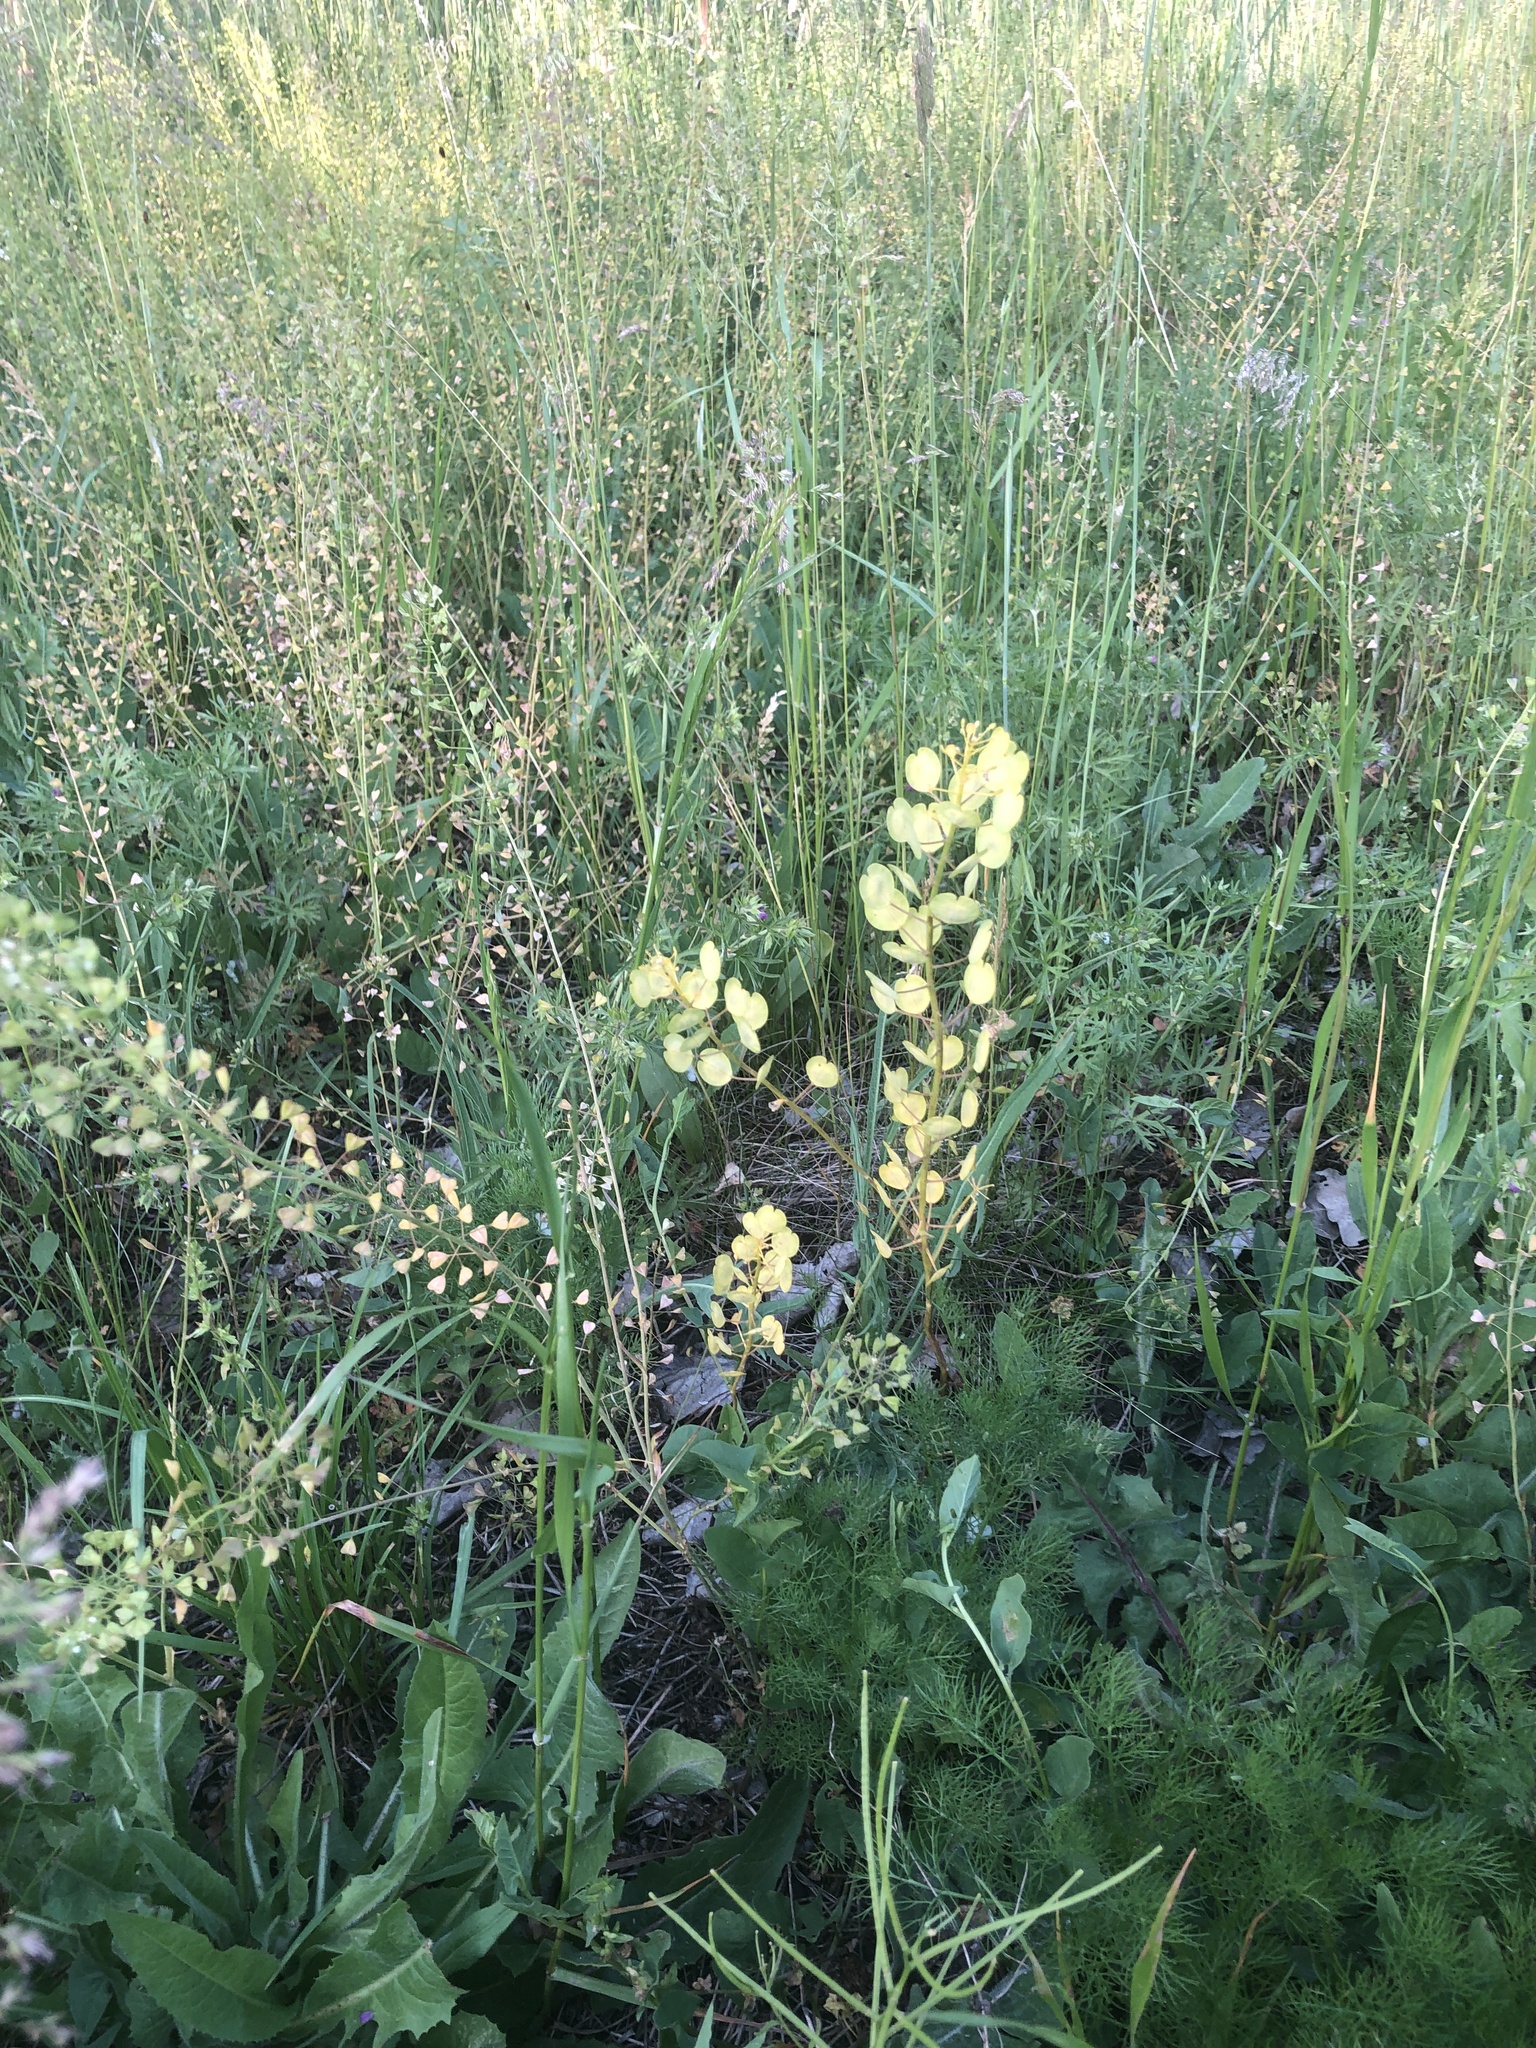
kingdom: Plantae
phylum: Tracheophyta
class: Magnoliopsida
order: Brassicales
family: Brassicaceae
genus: Thlaspi
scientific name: Thlaspi arvense
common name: Field pennycress
